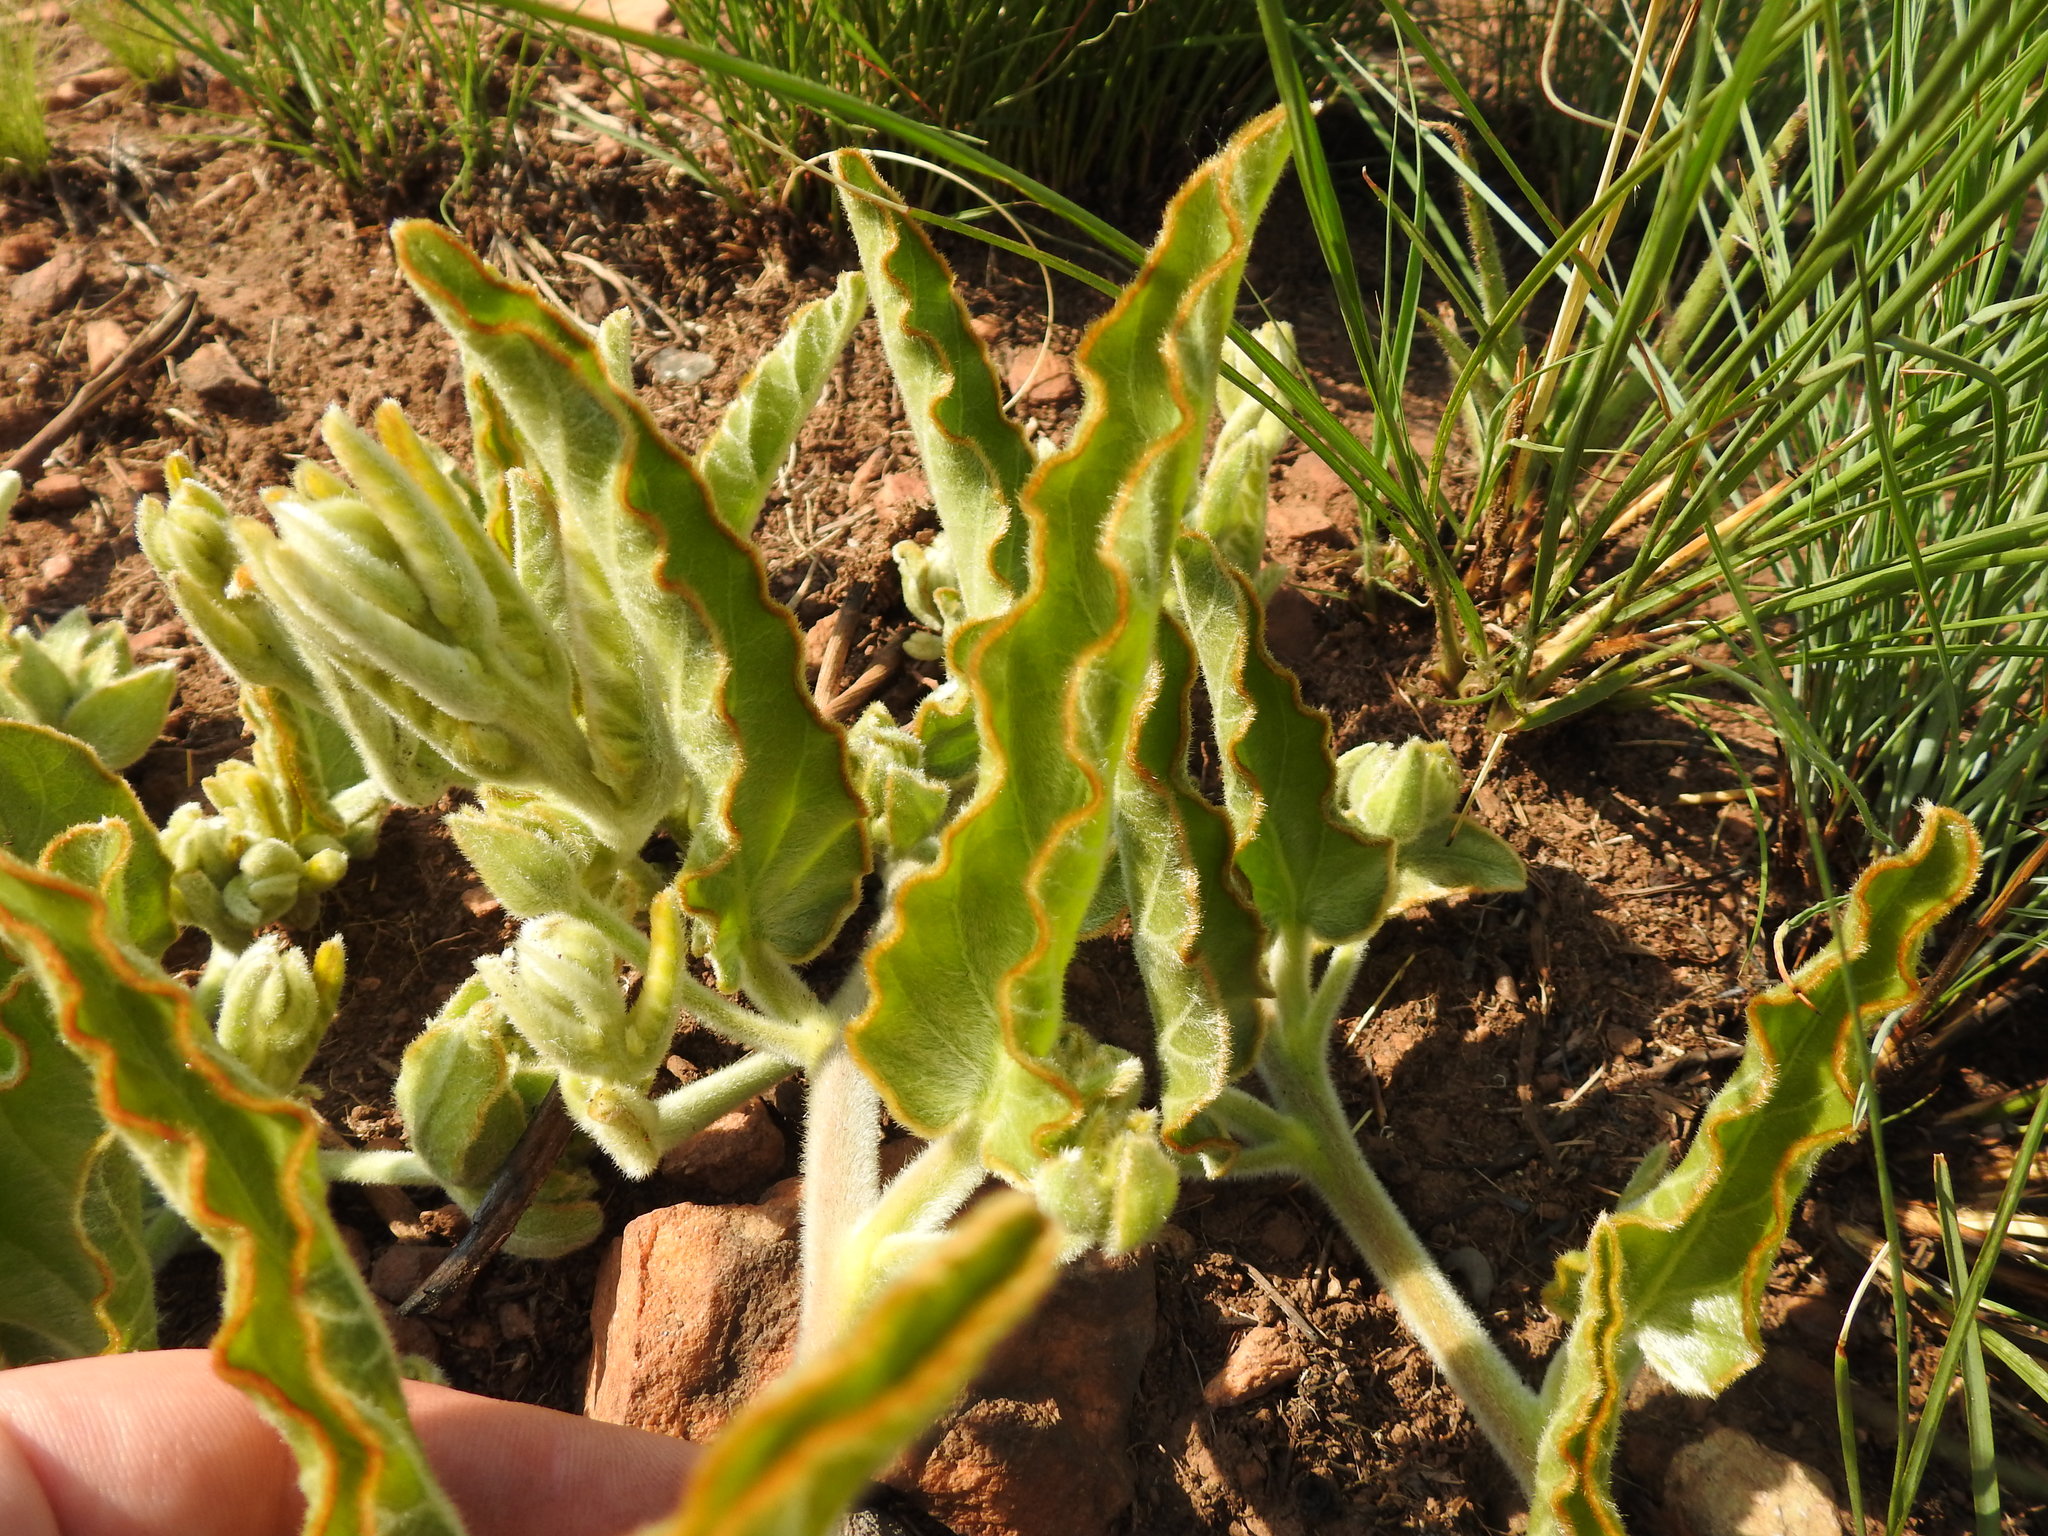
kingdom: Plantae
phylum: Tracheophyta
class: Magnoliopsida
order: Solanales
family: Convolvulaceae
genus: Ipomoea
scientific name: Ipomoea ommanneyi
